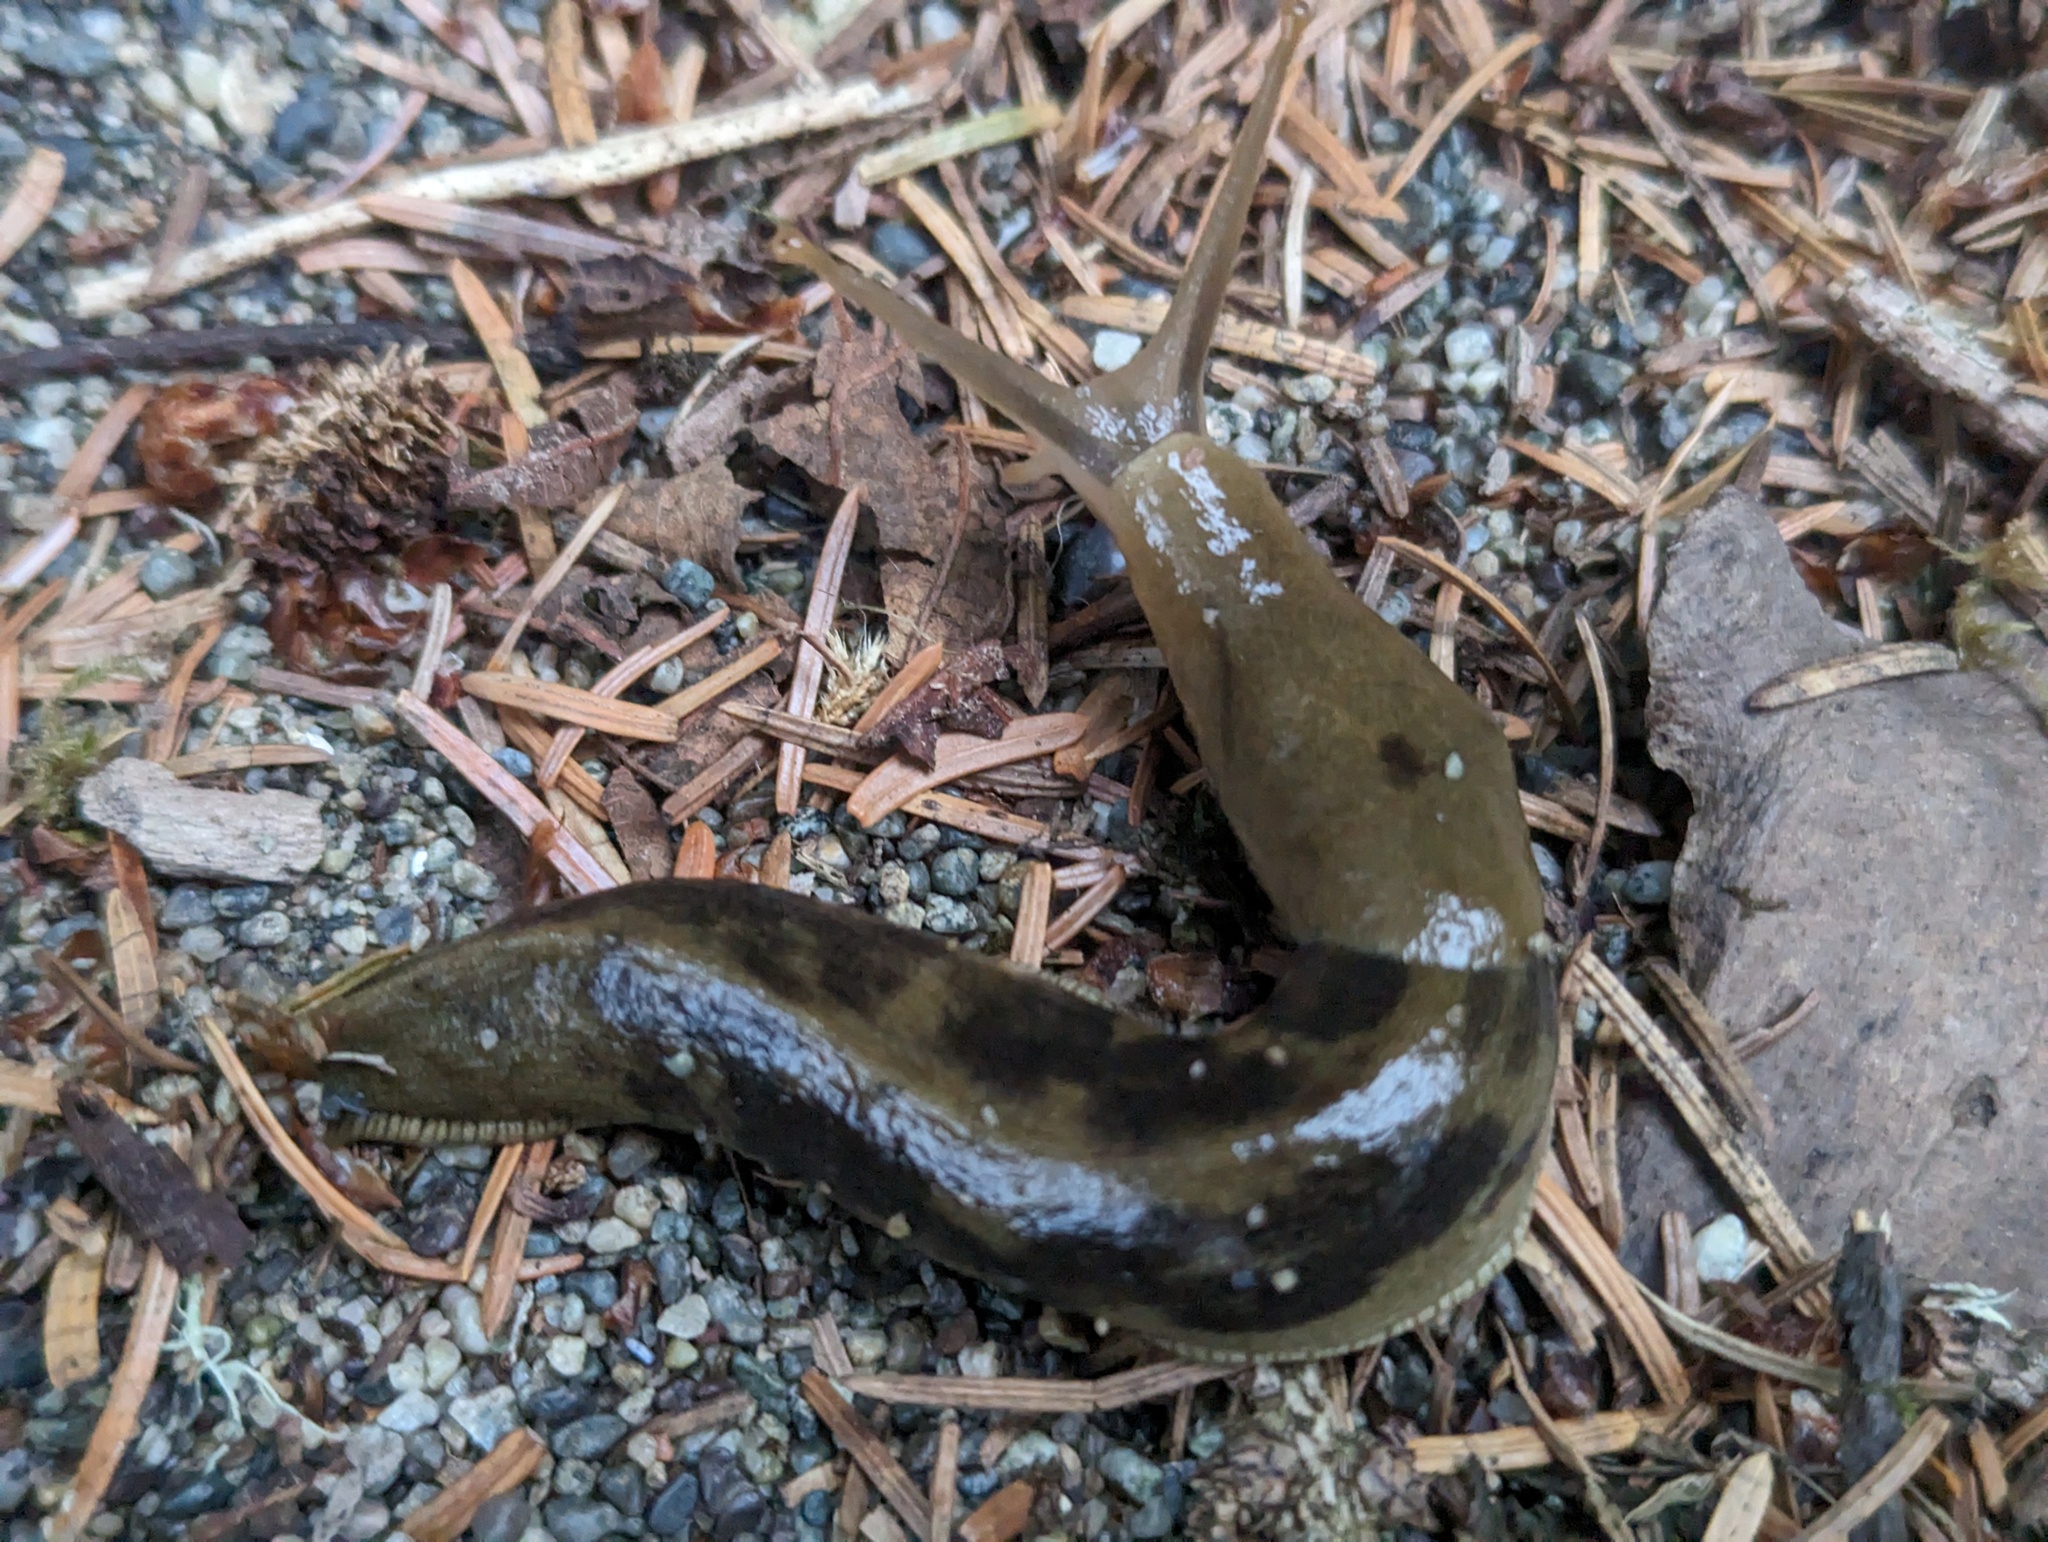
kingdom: Animalia
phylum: Mollusca
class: Gastropoda
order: Stylommatophora
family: Ariolimacidae
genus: Ariolimax
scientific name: Ariolimax columbianus
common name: Pacific banana slug
